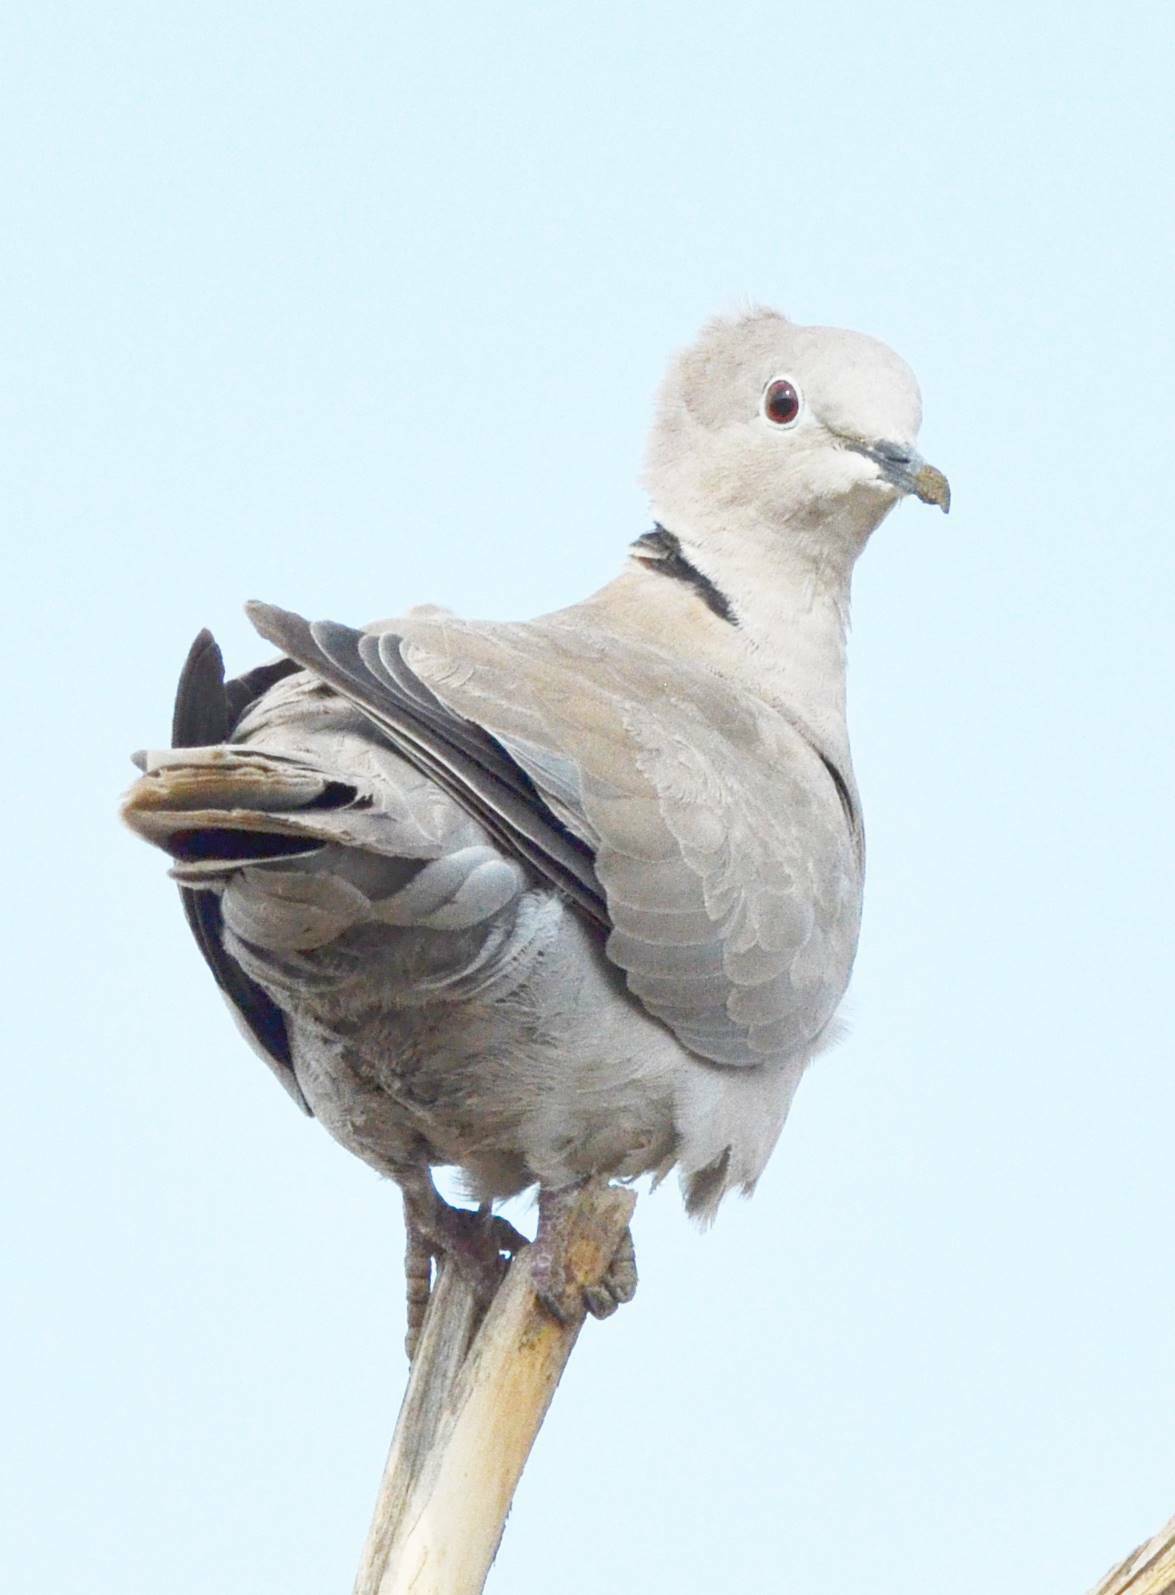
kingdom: Animalia
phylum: Chordata
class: Aves
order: Columbiformes
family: Columbidae
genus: Streptopelia
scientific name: Streptopelia decaocto
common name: Eurasian collared dove
